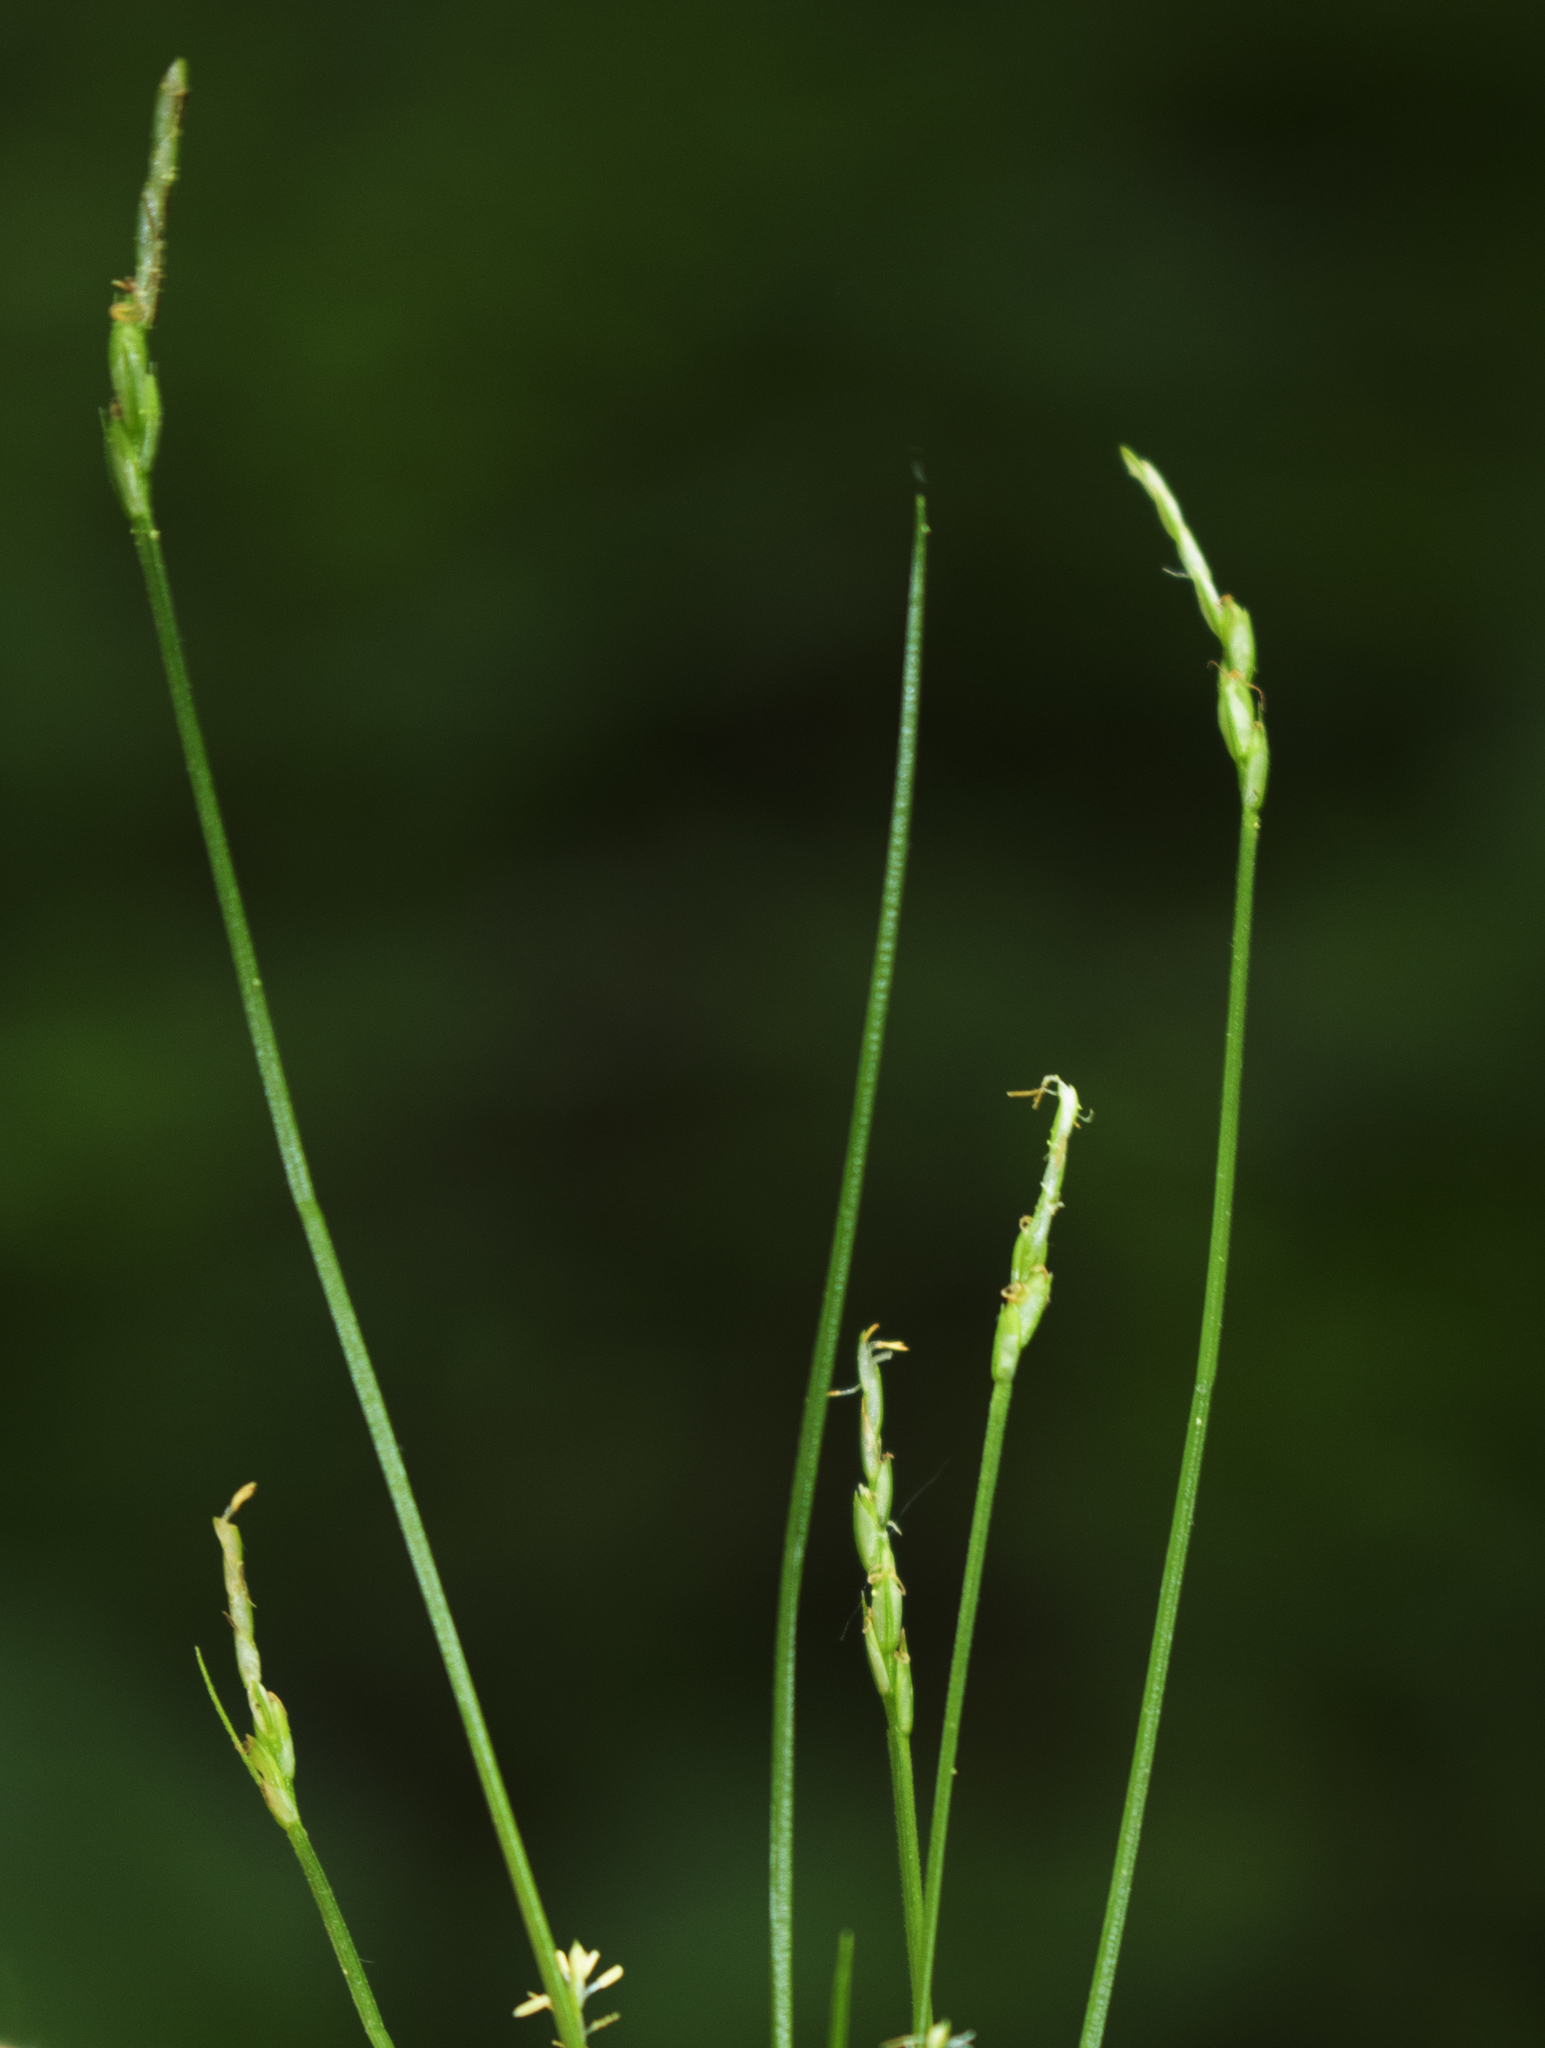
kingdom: Plantae
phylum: Tracheophyta
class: Liliopsida
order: Poales
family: Cyperaceae
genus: Carex
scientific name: Carex leptalea
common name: Bristly-stalked sedge
